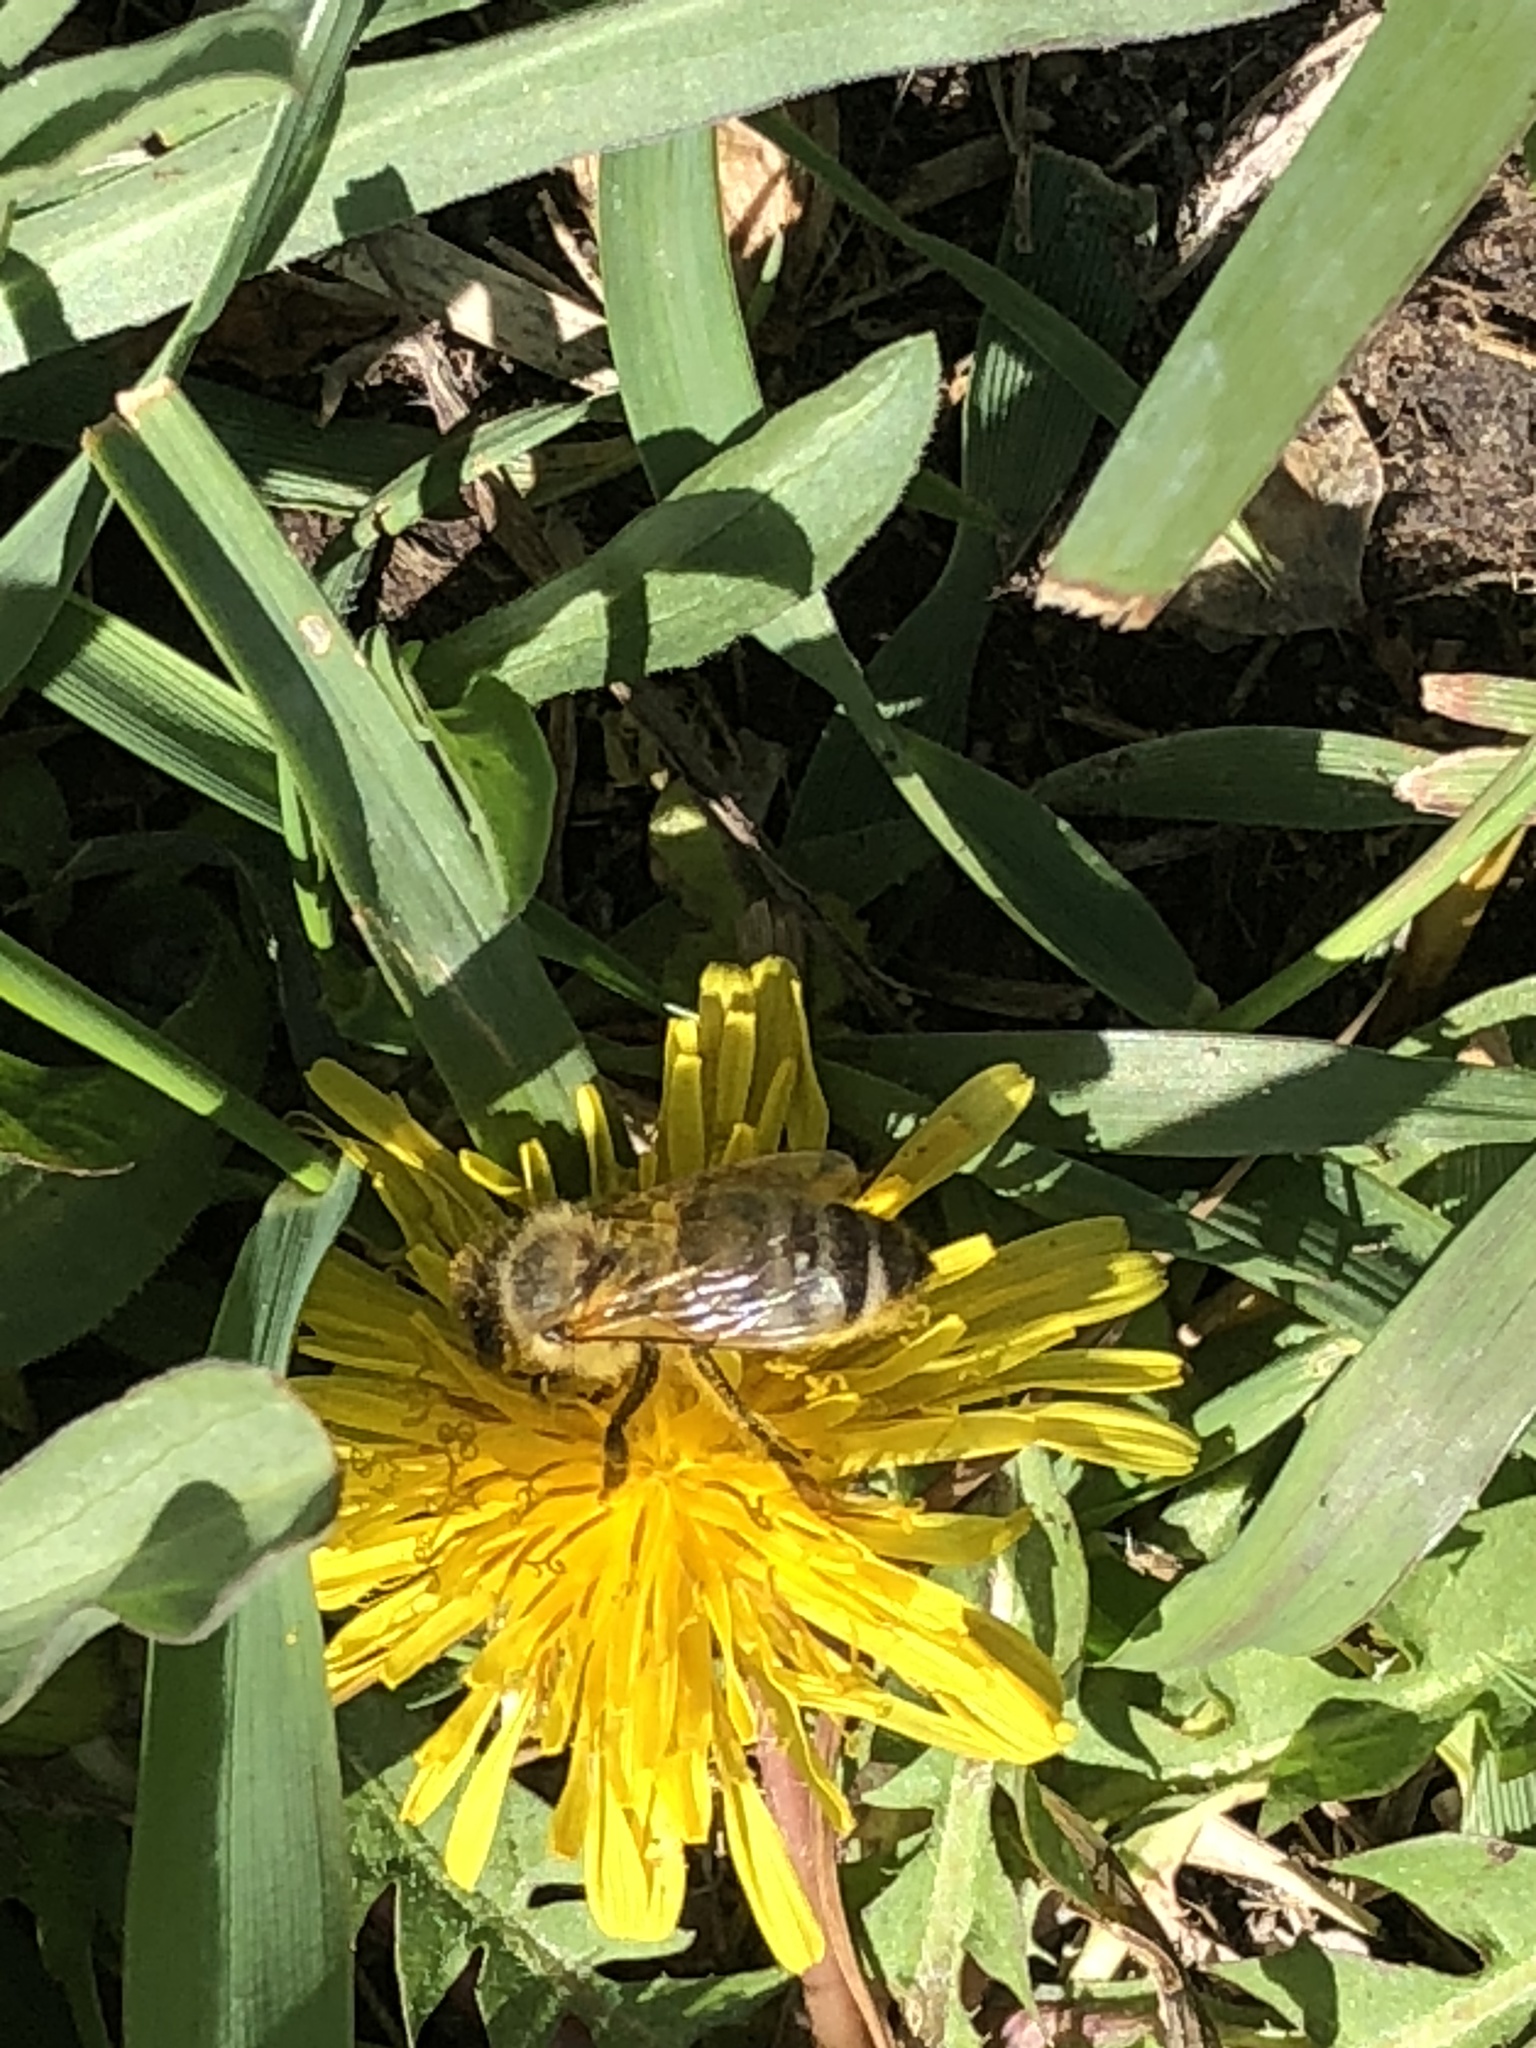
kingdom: Animalia
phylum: Arthropoda
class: Insecta
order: Hymenoptera
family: Apidae
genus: Apis
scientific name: Apis mellifera
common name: Honey bee
